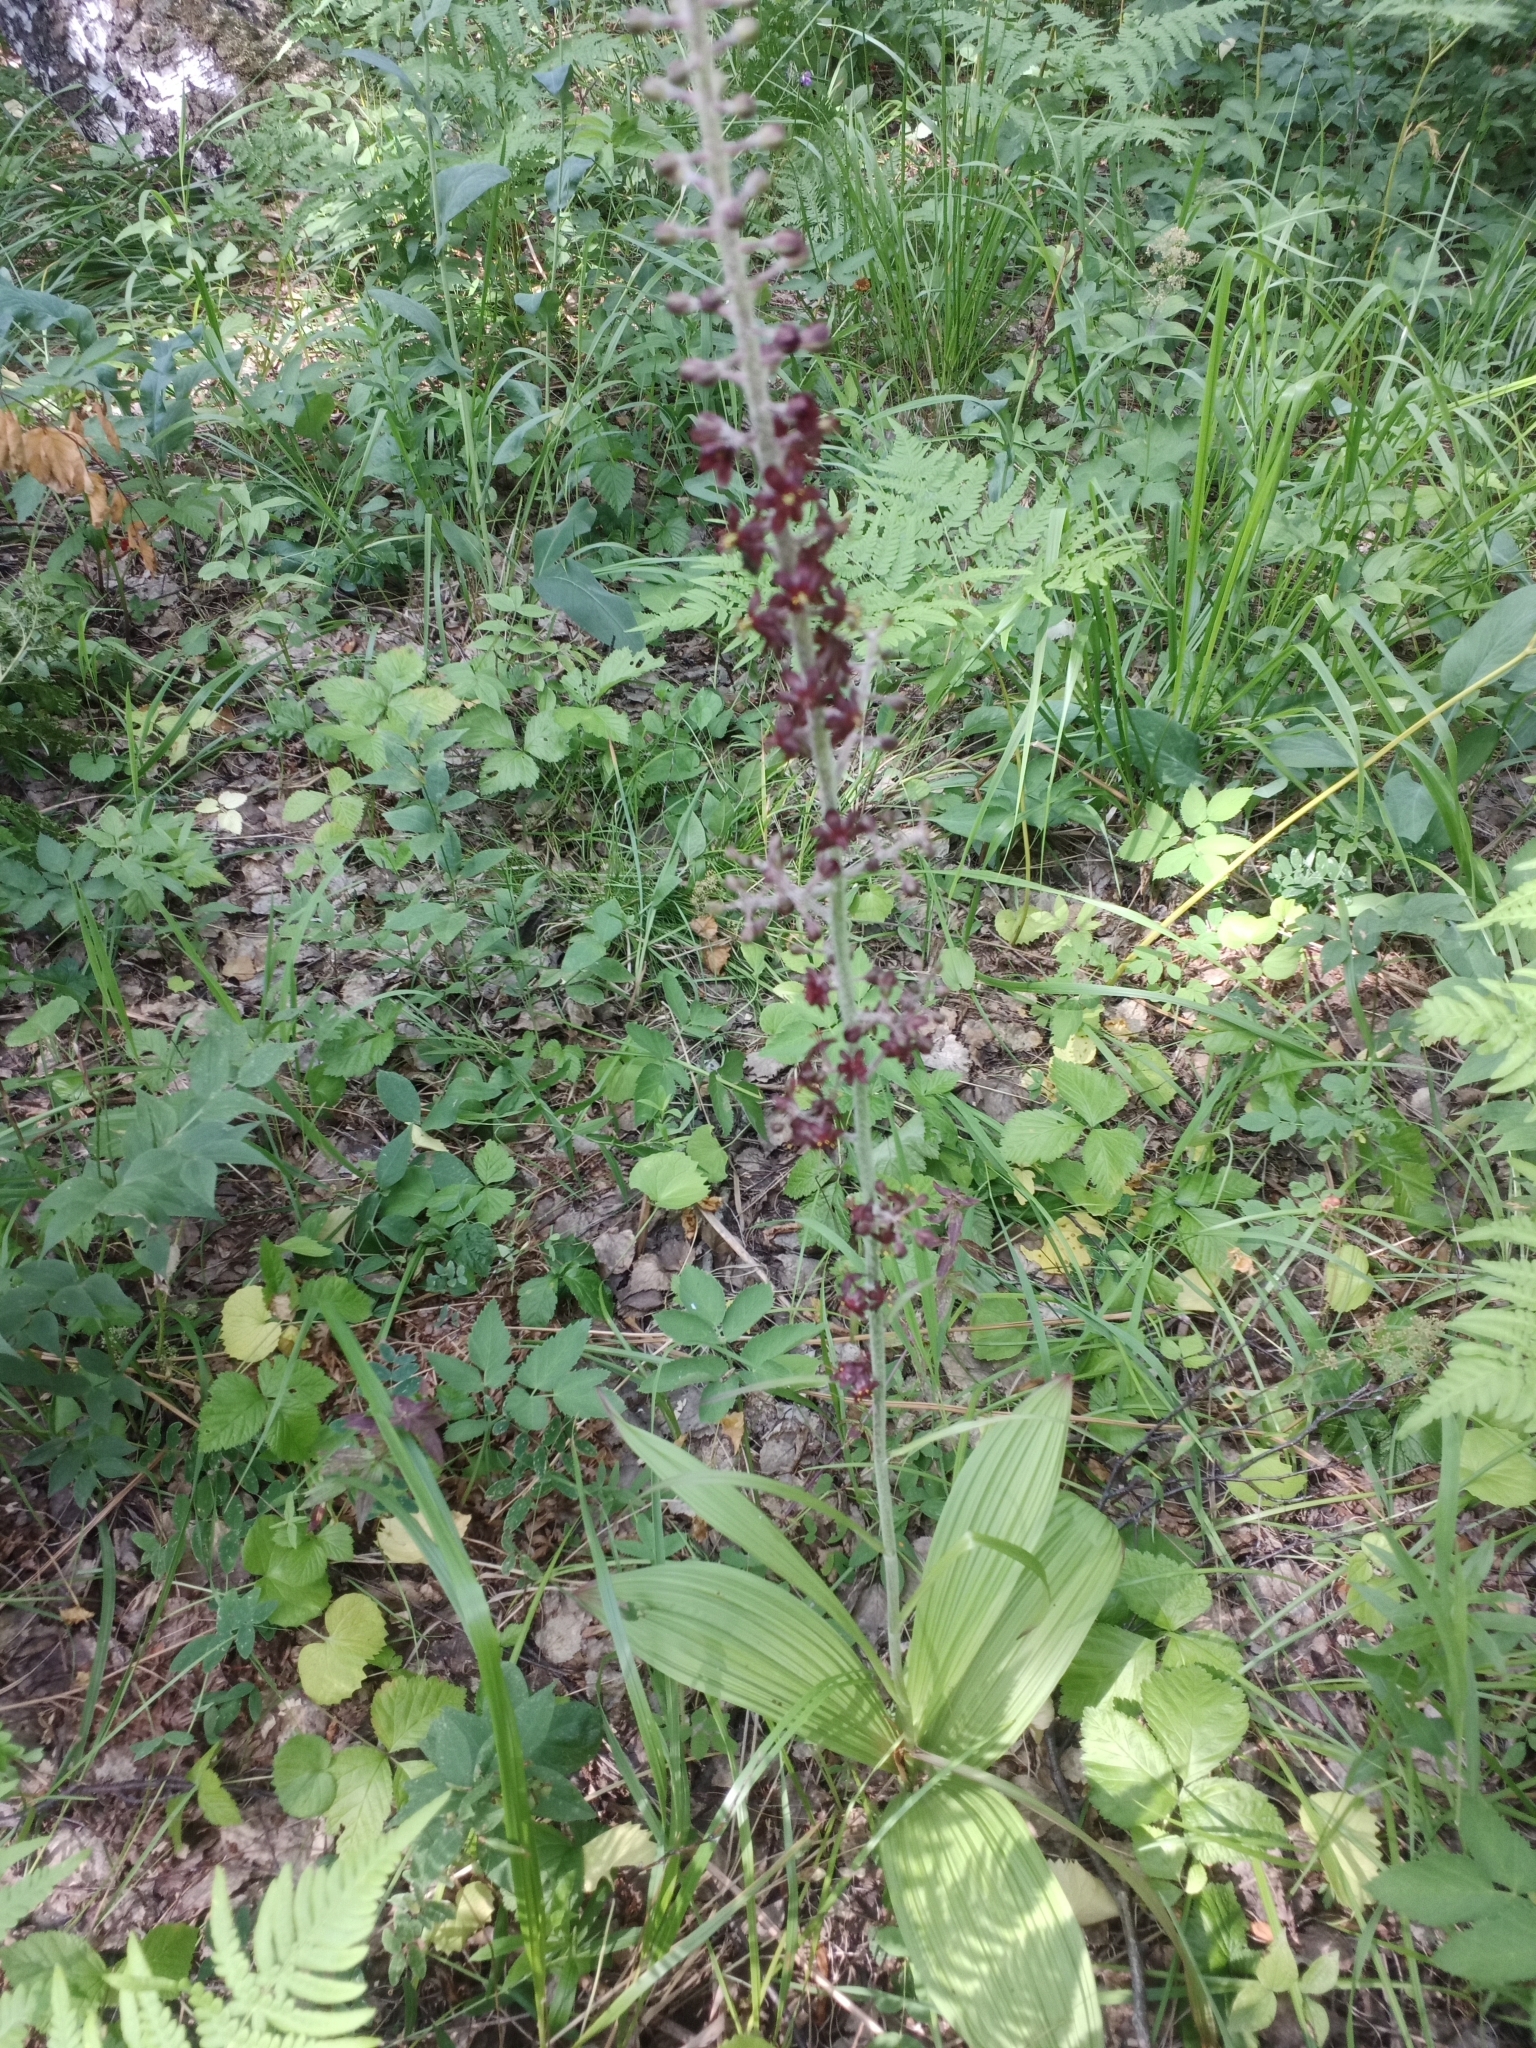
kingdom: Plantae
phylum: Tracheophyta
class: Liliopsida
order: Liliales
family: Melanthiaceae
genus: Veratrum
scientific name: Veratrum nigrum
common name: Black veratrum
